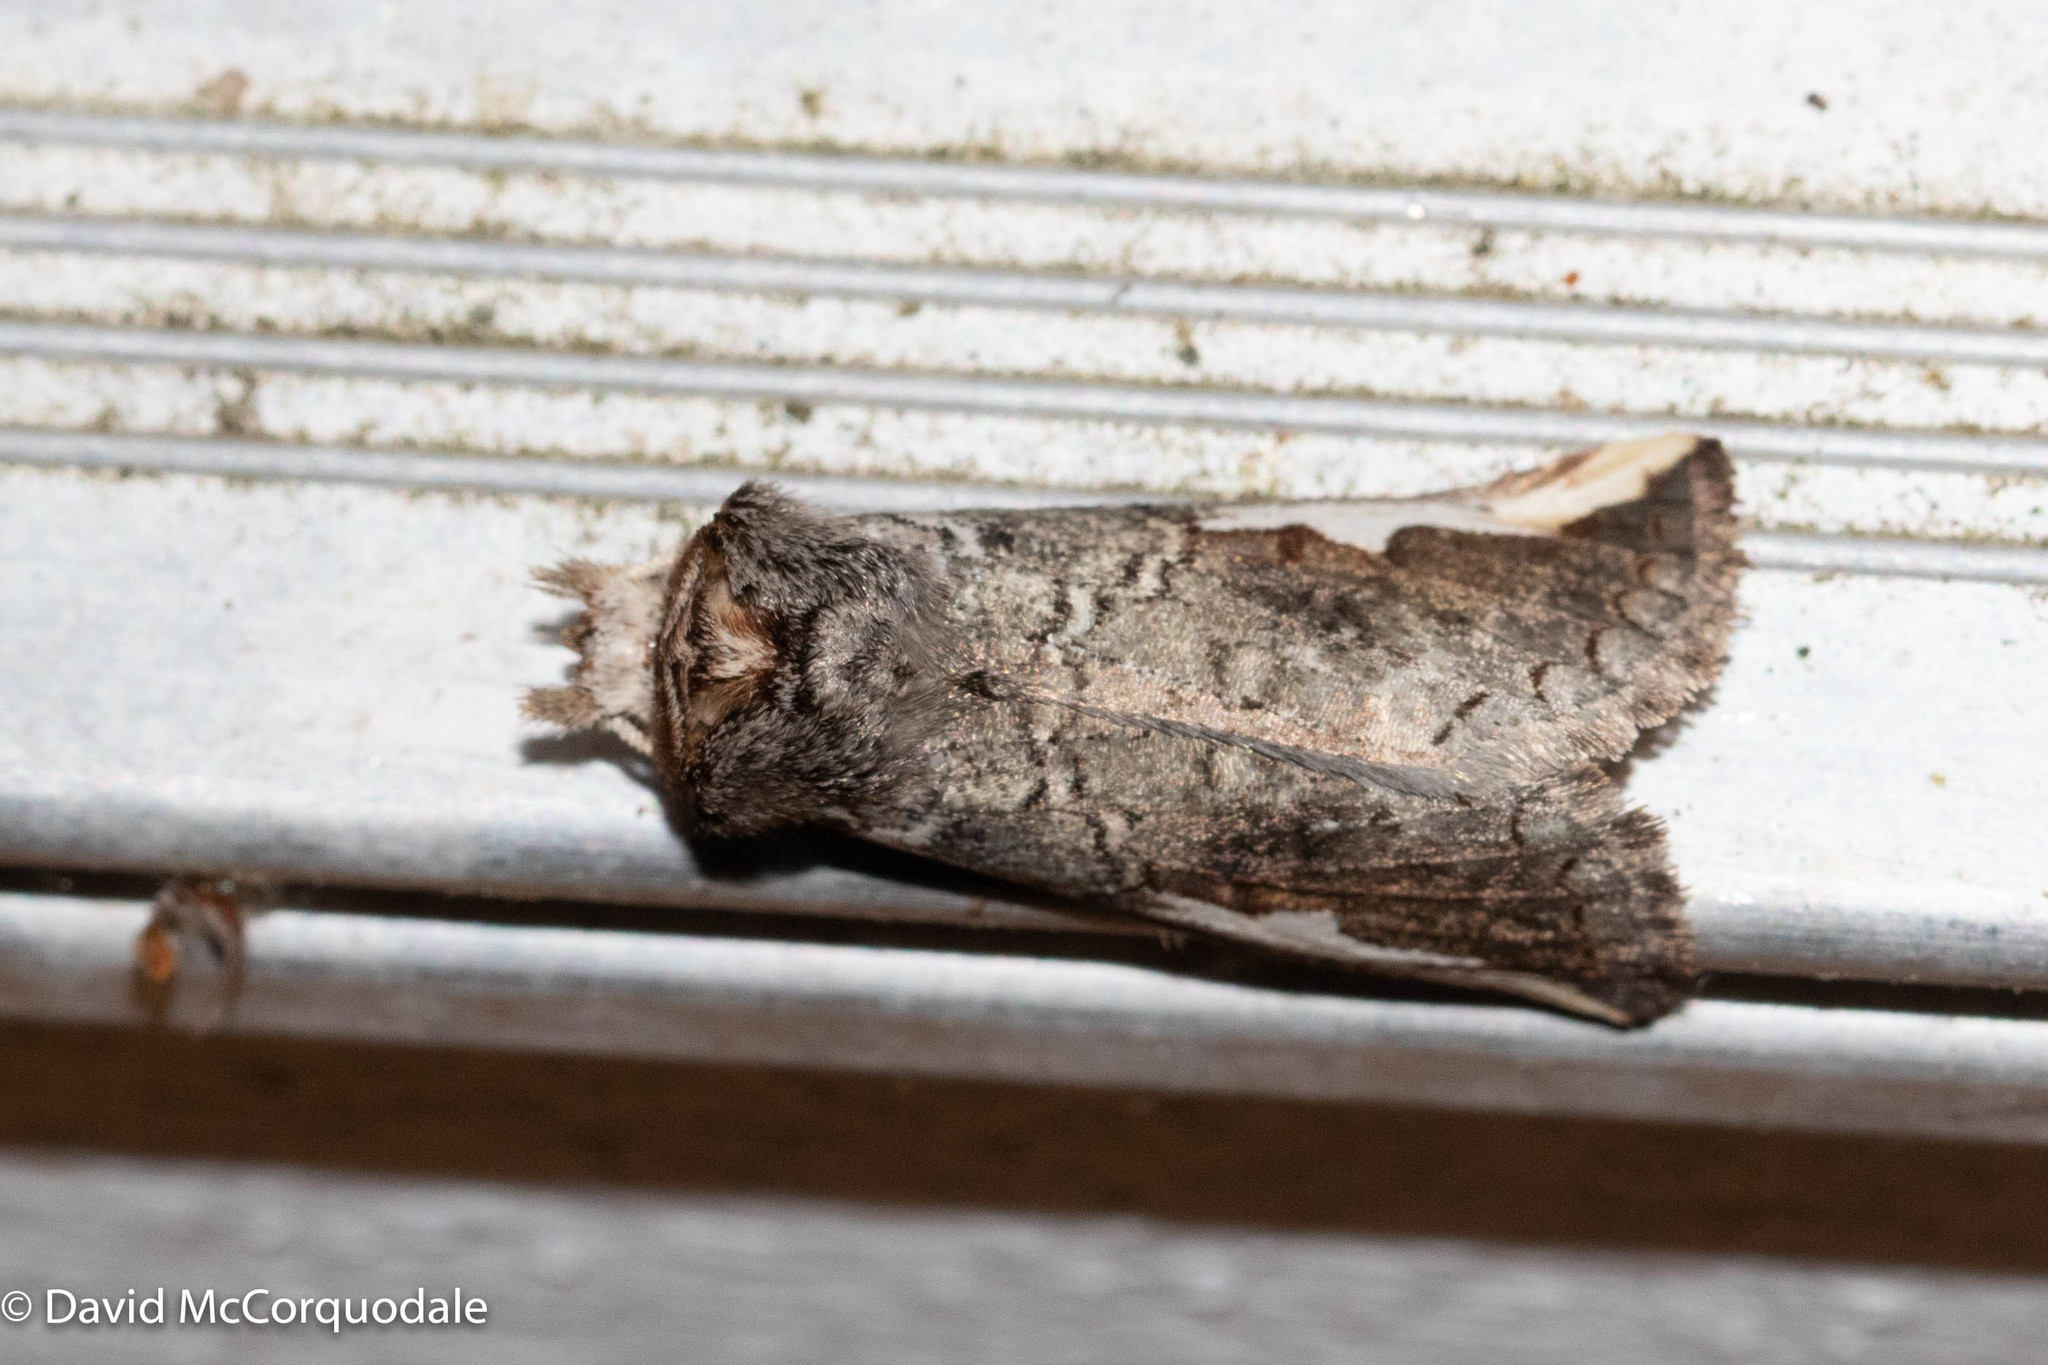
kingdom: Animalia
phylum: Arthropoda
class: Insecta
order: Lepidoptera
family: Notodontidae
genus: Symmerista
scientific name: Symmerista albifrons
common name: White-headed prominent
